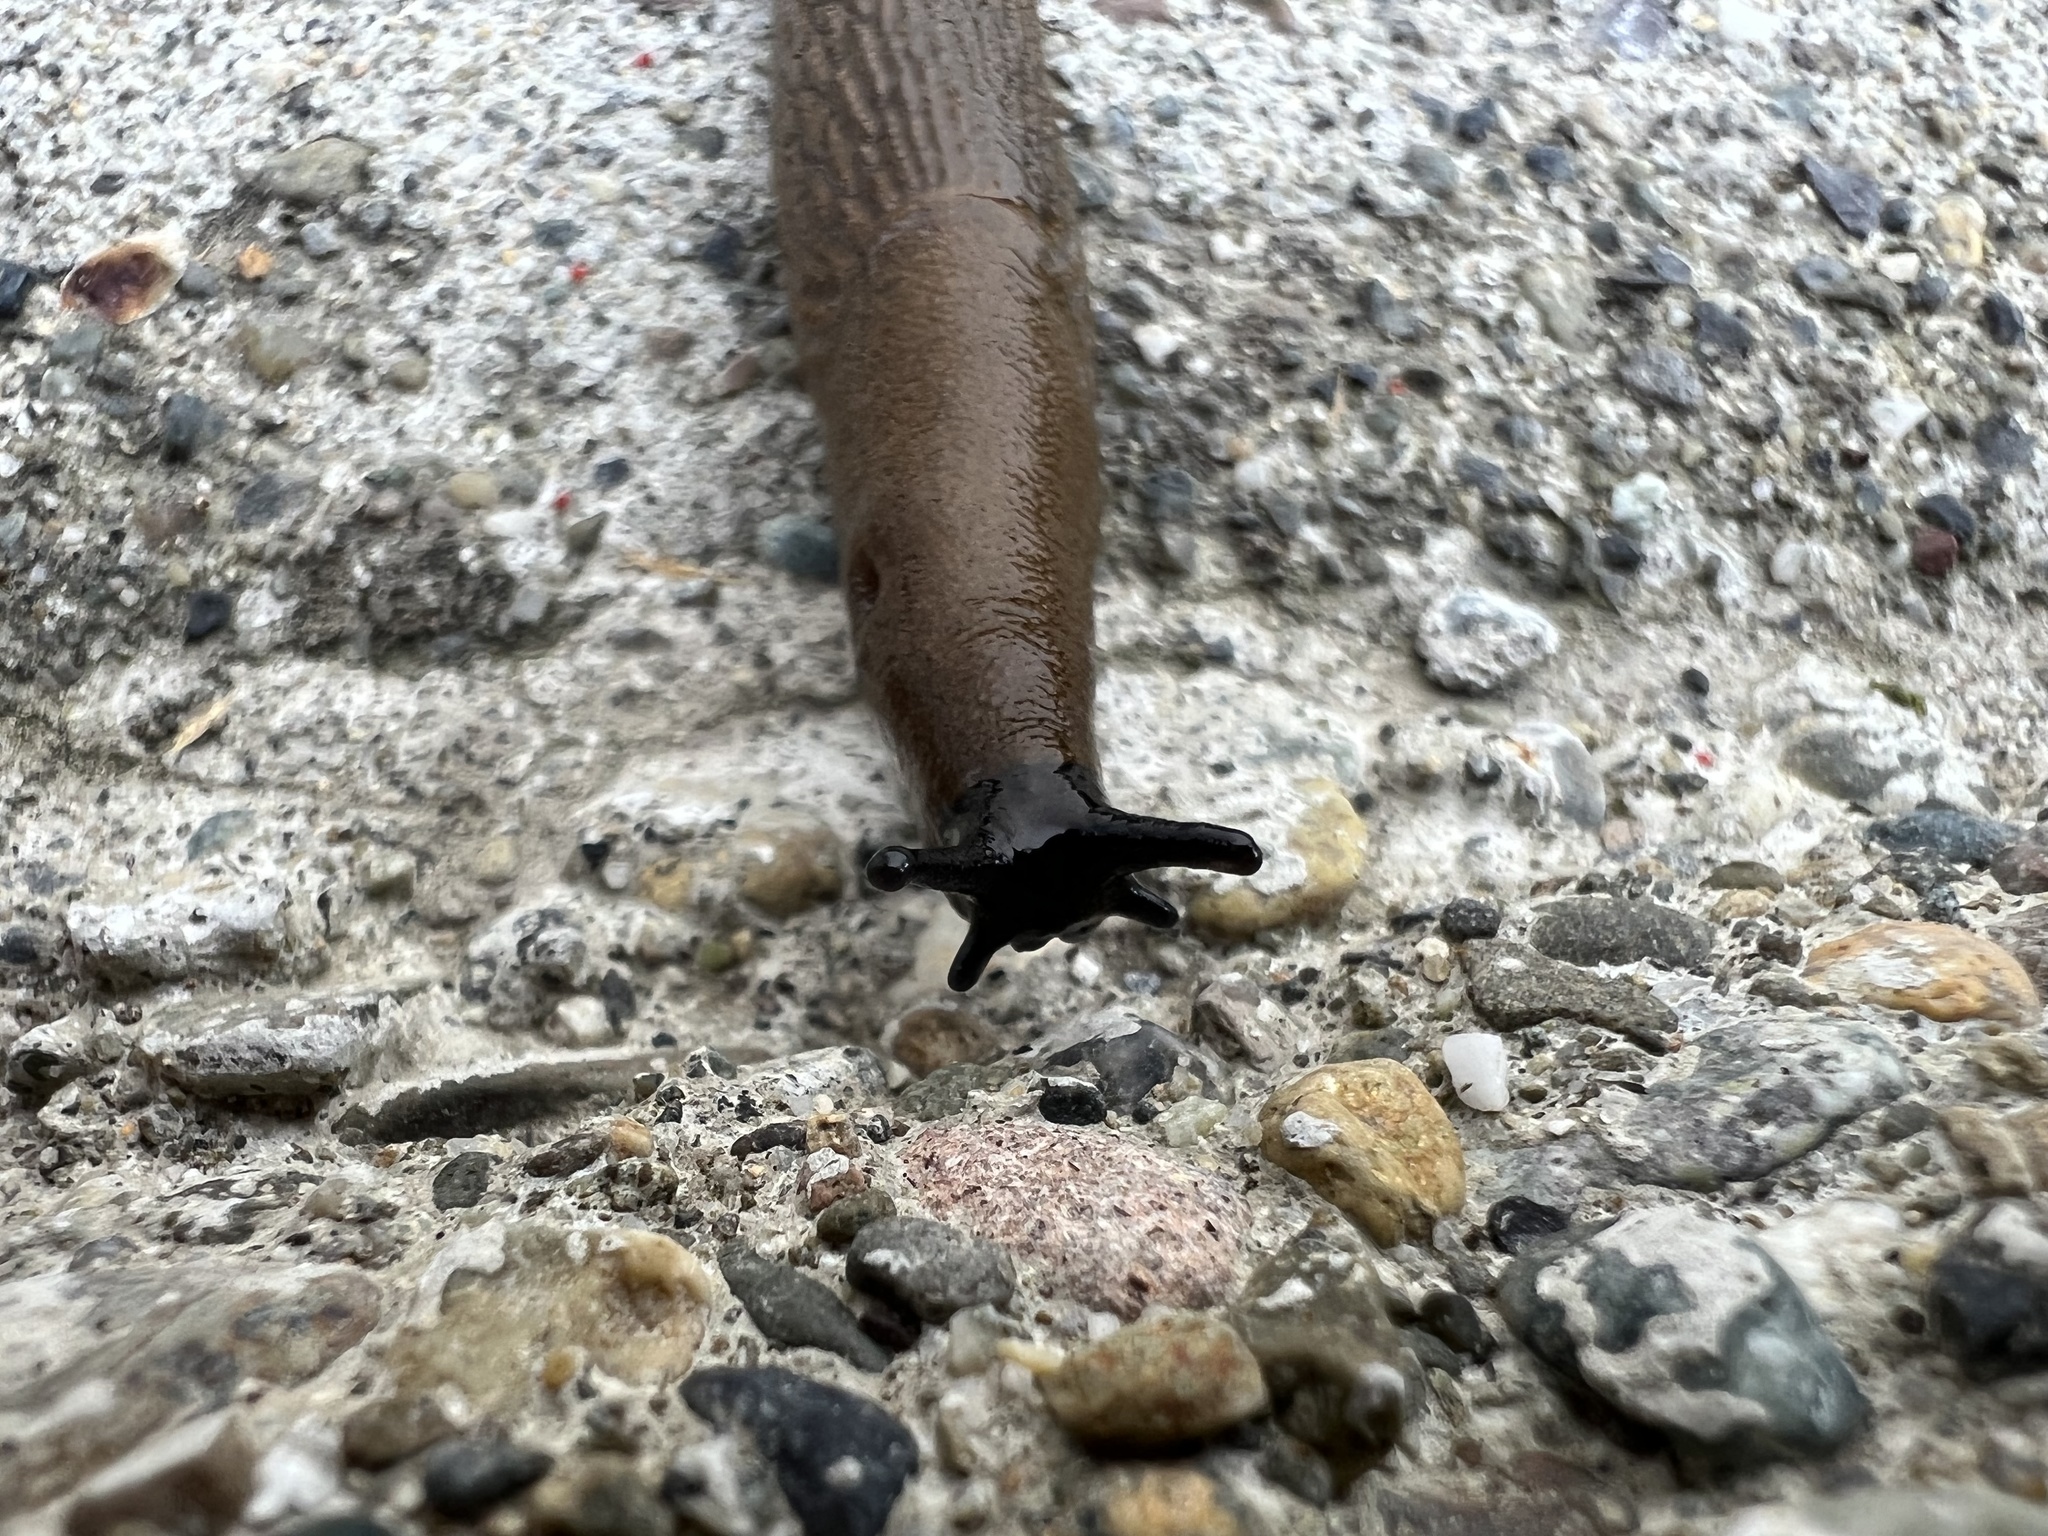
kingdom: Animalia
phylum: Mollusca
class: Gastropoda
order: Stylommatophora
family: Arionidae
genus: Arion
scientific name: Arion
